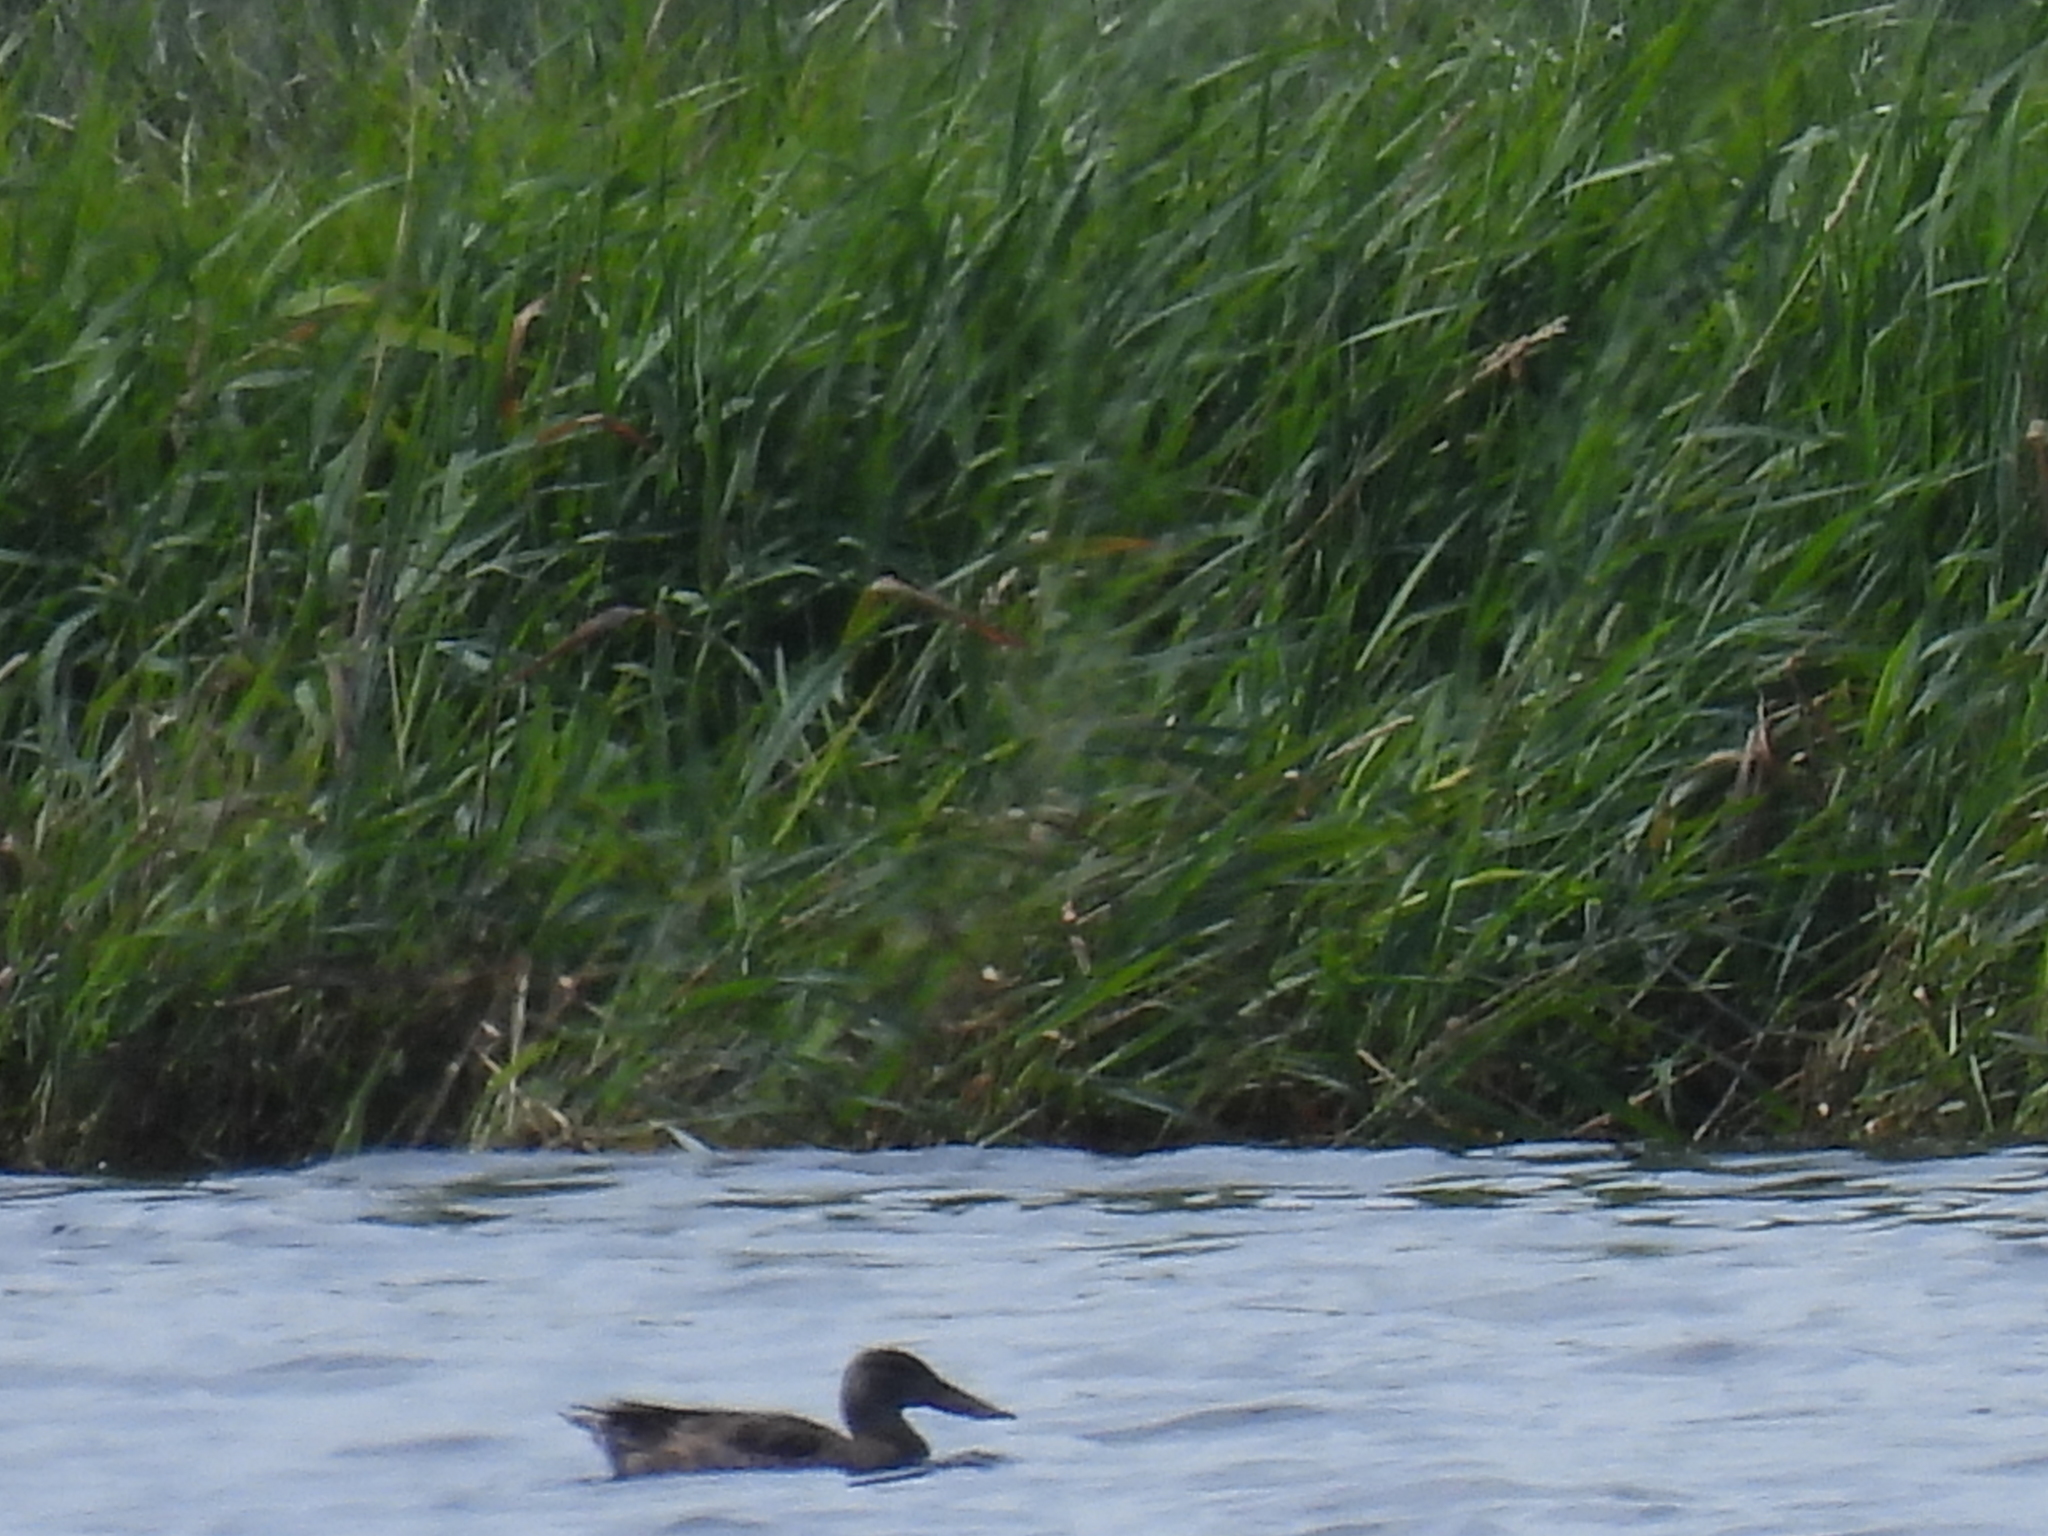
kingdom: Animalia
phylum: Chordata
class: Aves
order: Anseriformes
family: Anatidae
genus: Spatula
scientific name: Spatula clypeata
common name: Northern shoveler
